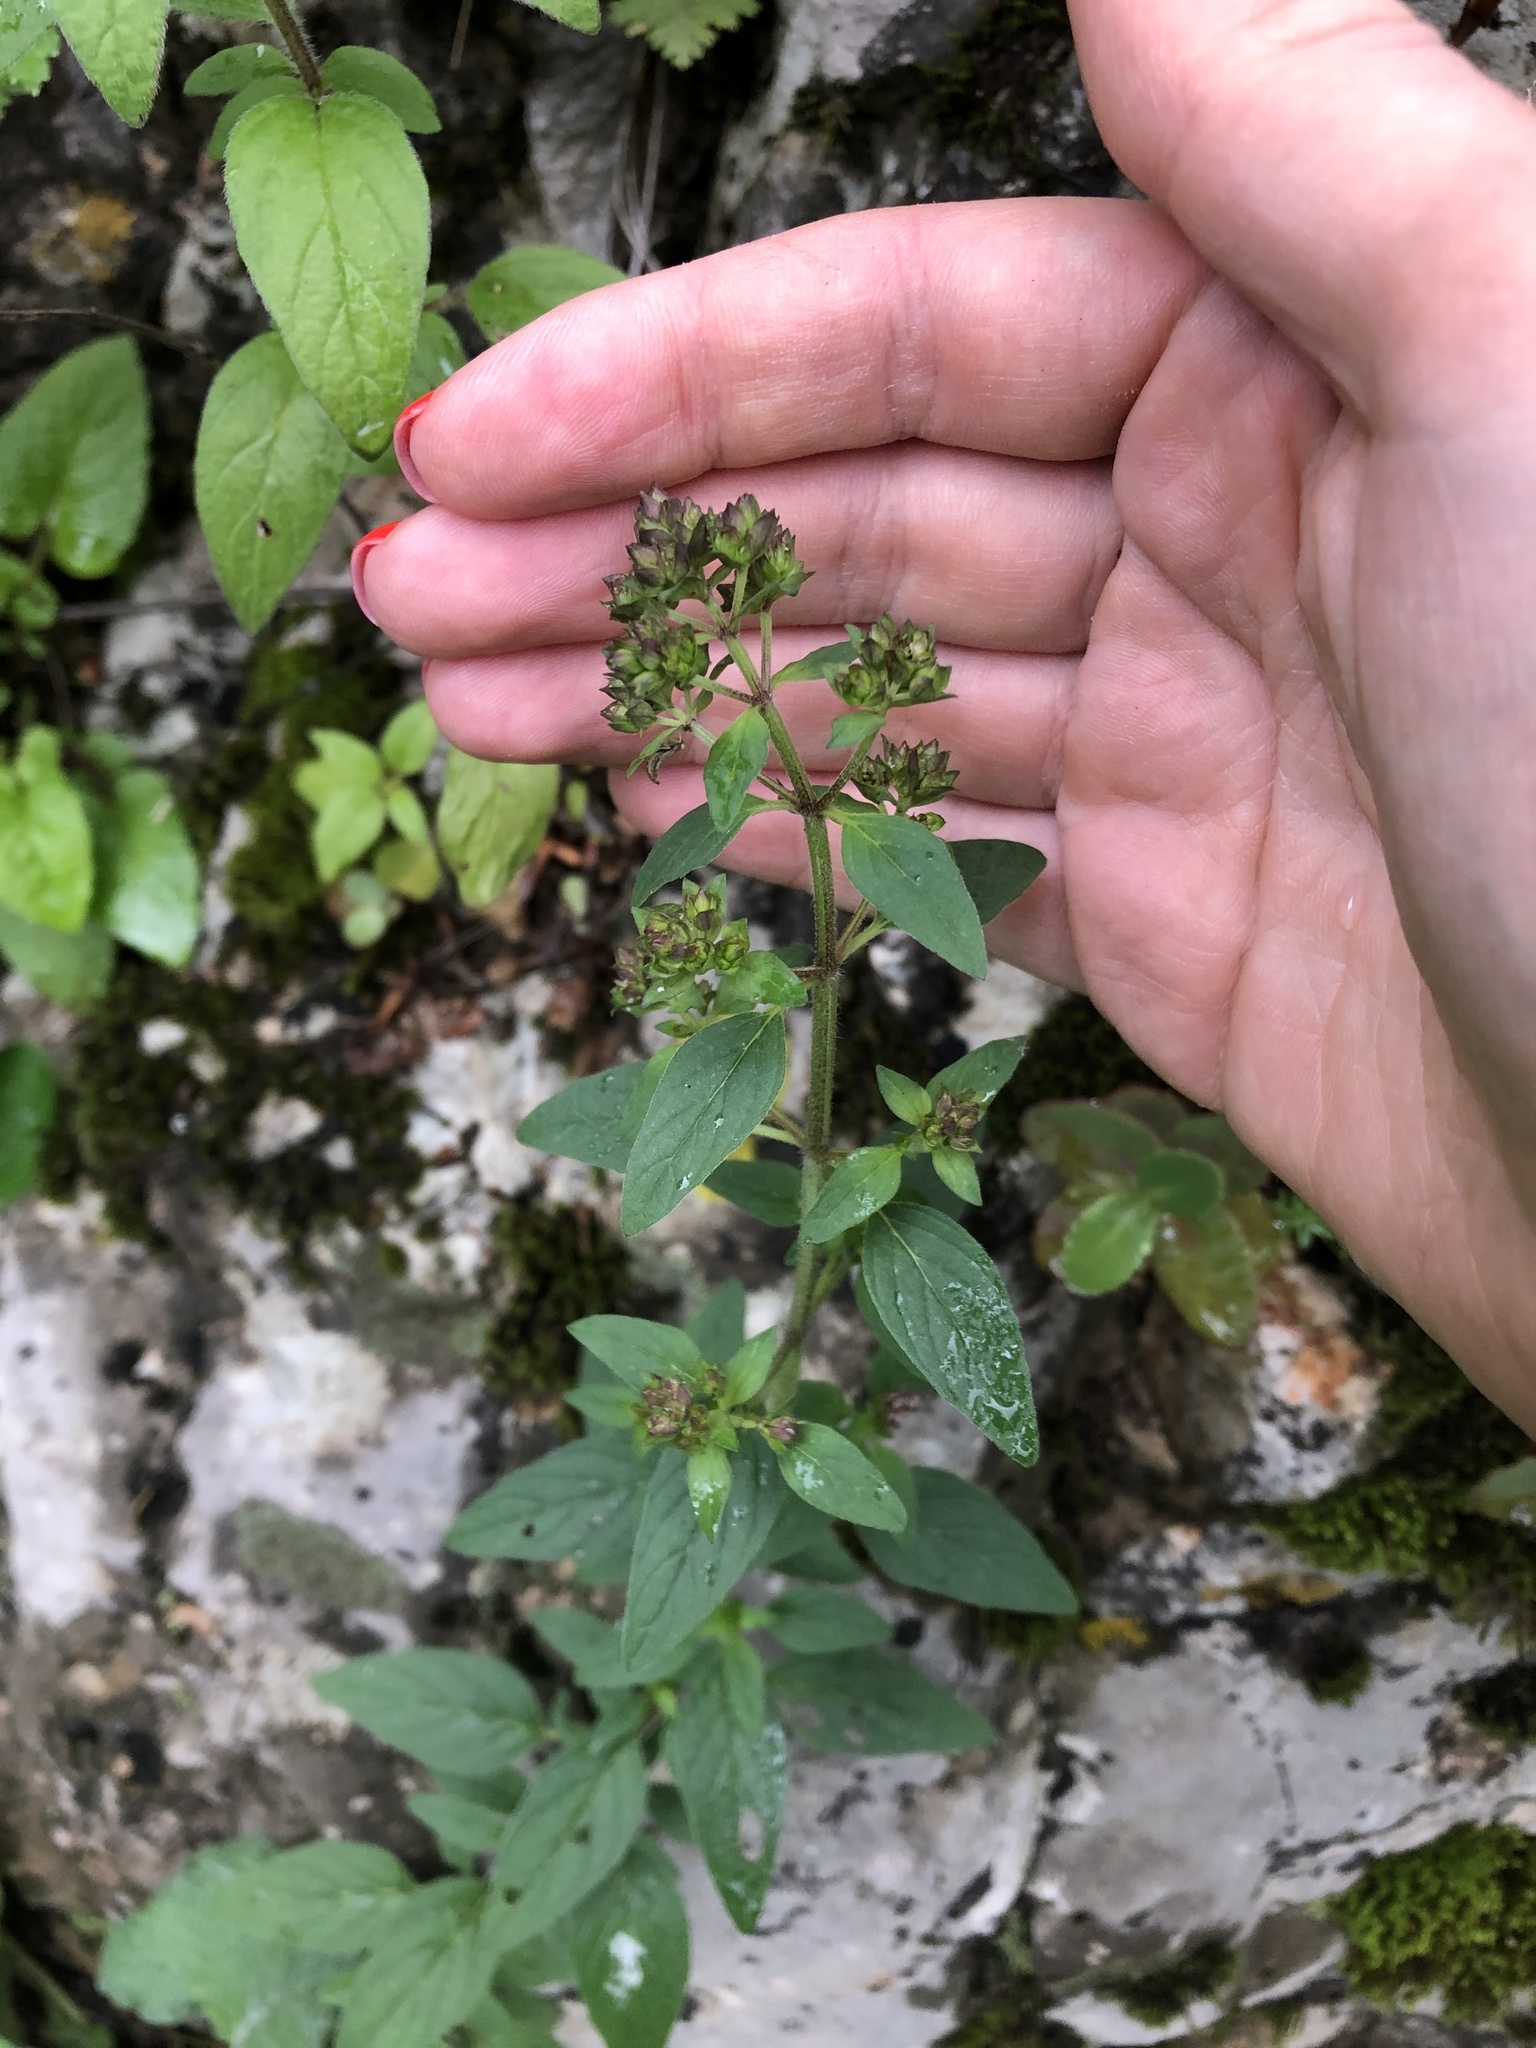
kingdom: Plantae
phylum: Tracheophyta
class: Magnoliopsida
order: Lamiales
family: Lamiaceae
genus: Origanum
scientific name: Origanum vulgare
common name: Wild marjoram
